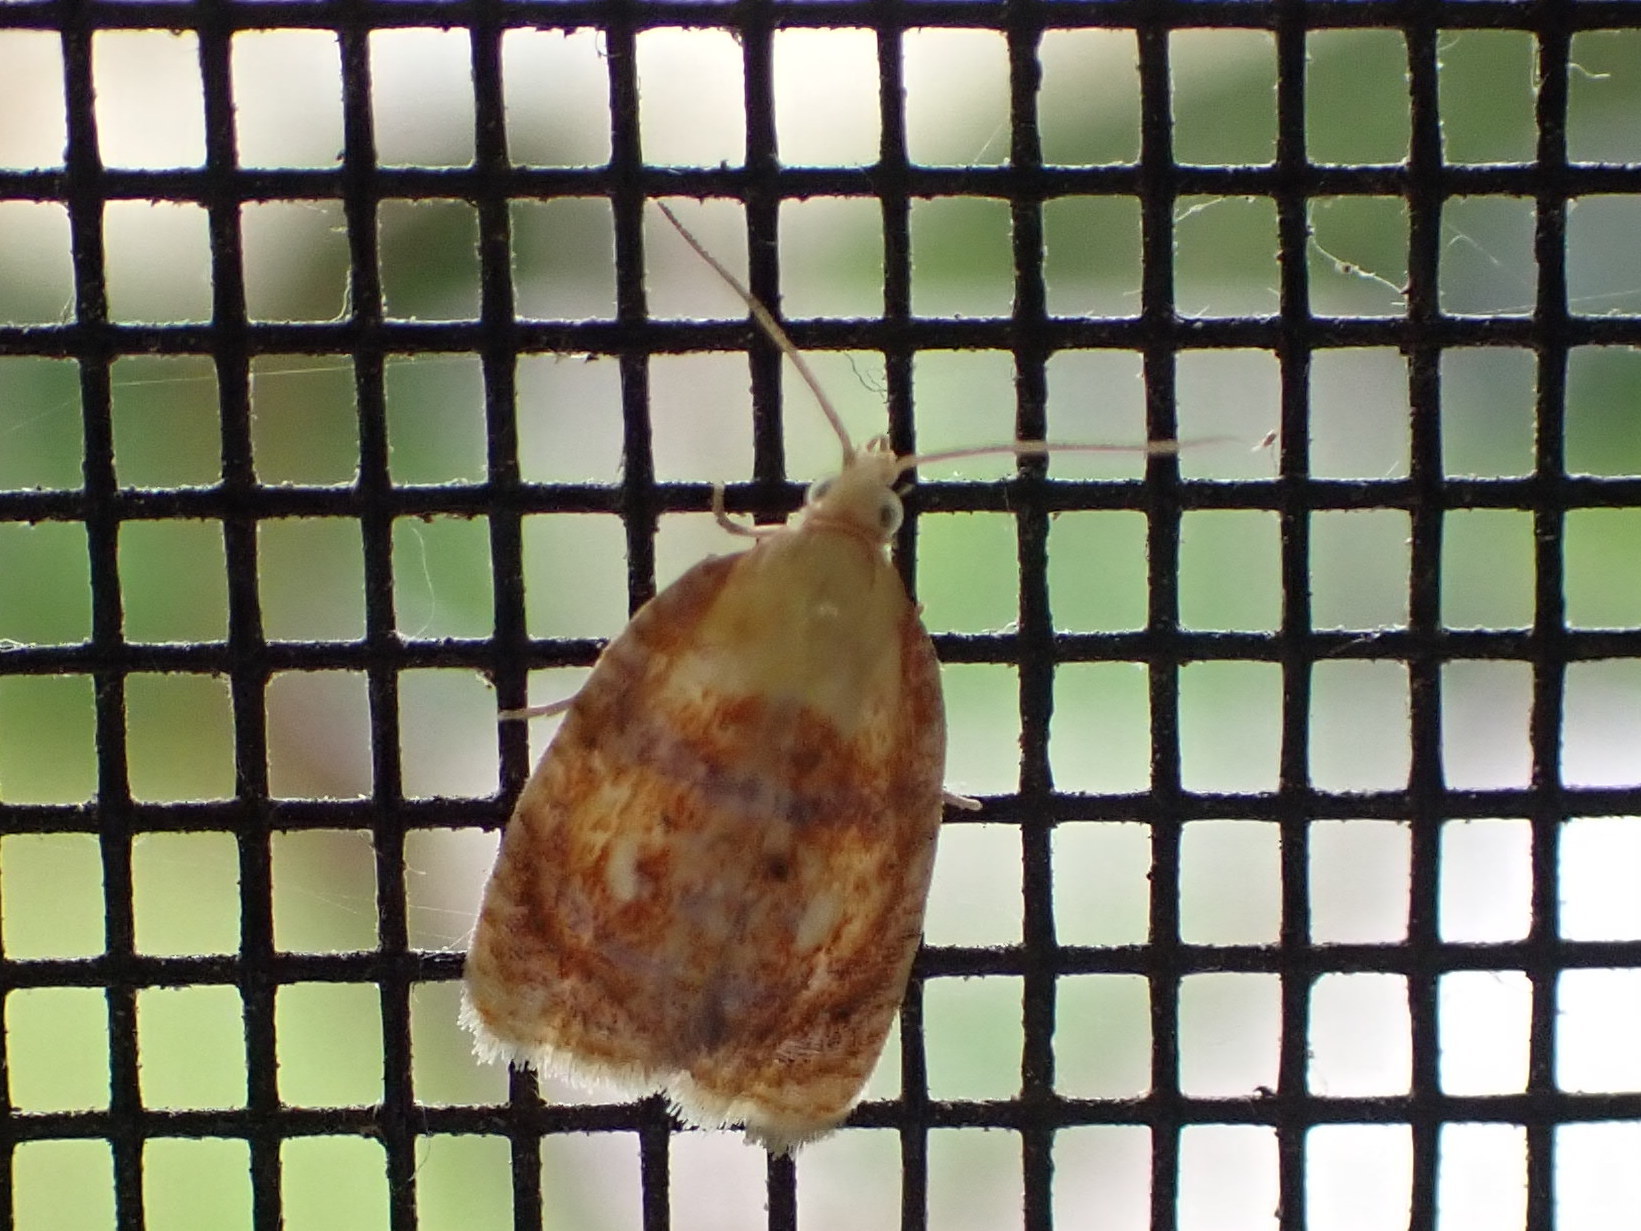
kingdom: Animalia
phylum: Arthropoda
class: Insecta
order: Lepidoptera
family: Tortricidae
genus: Acleris
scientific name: Acleris curvalana
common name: Blueberry leaftier moth
